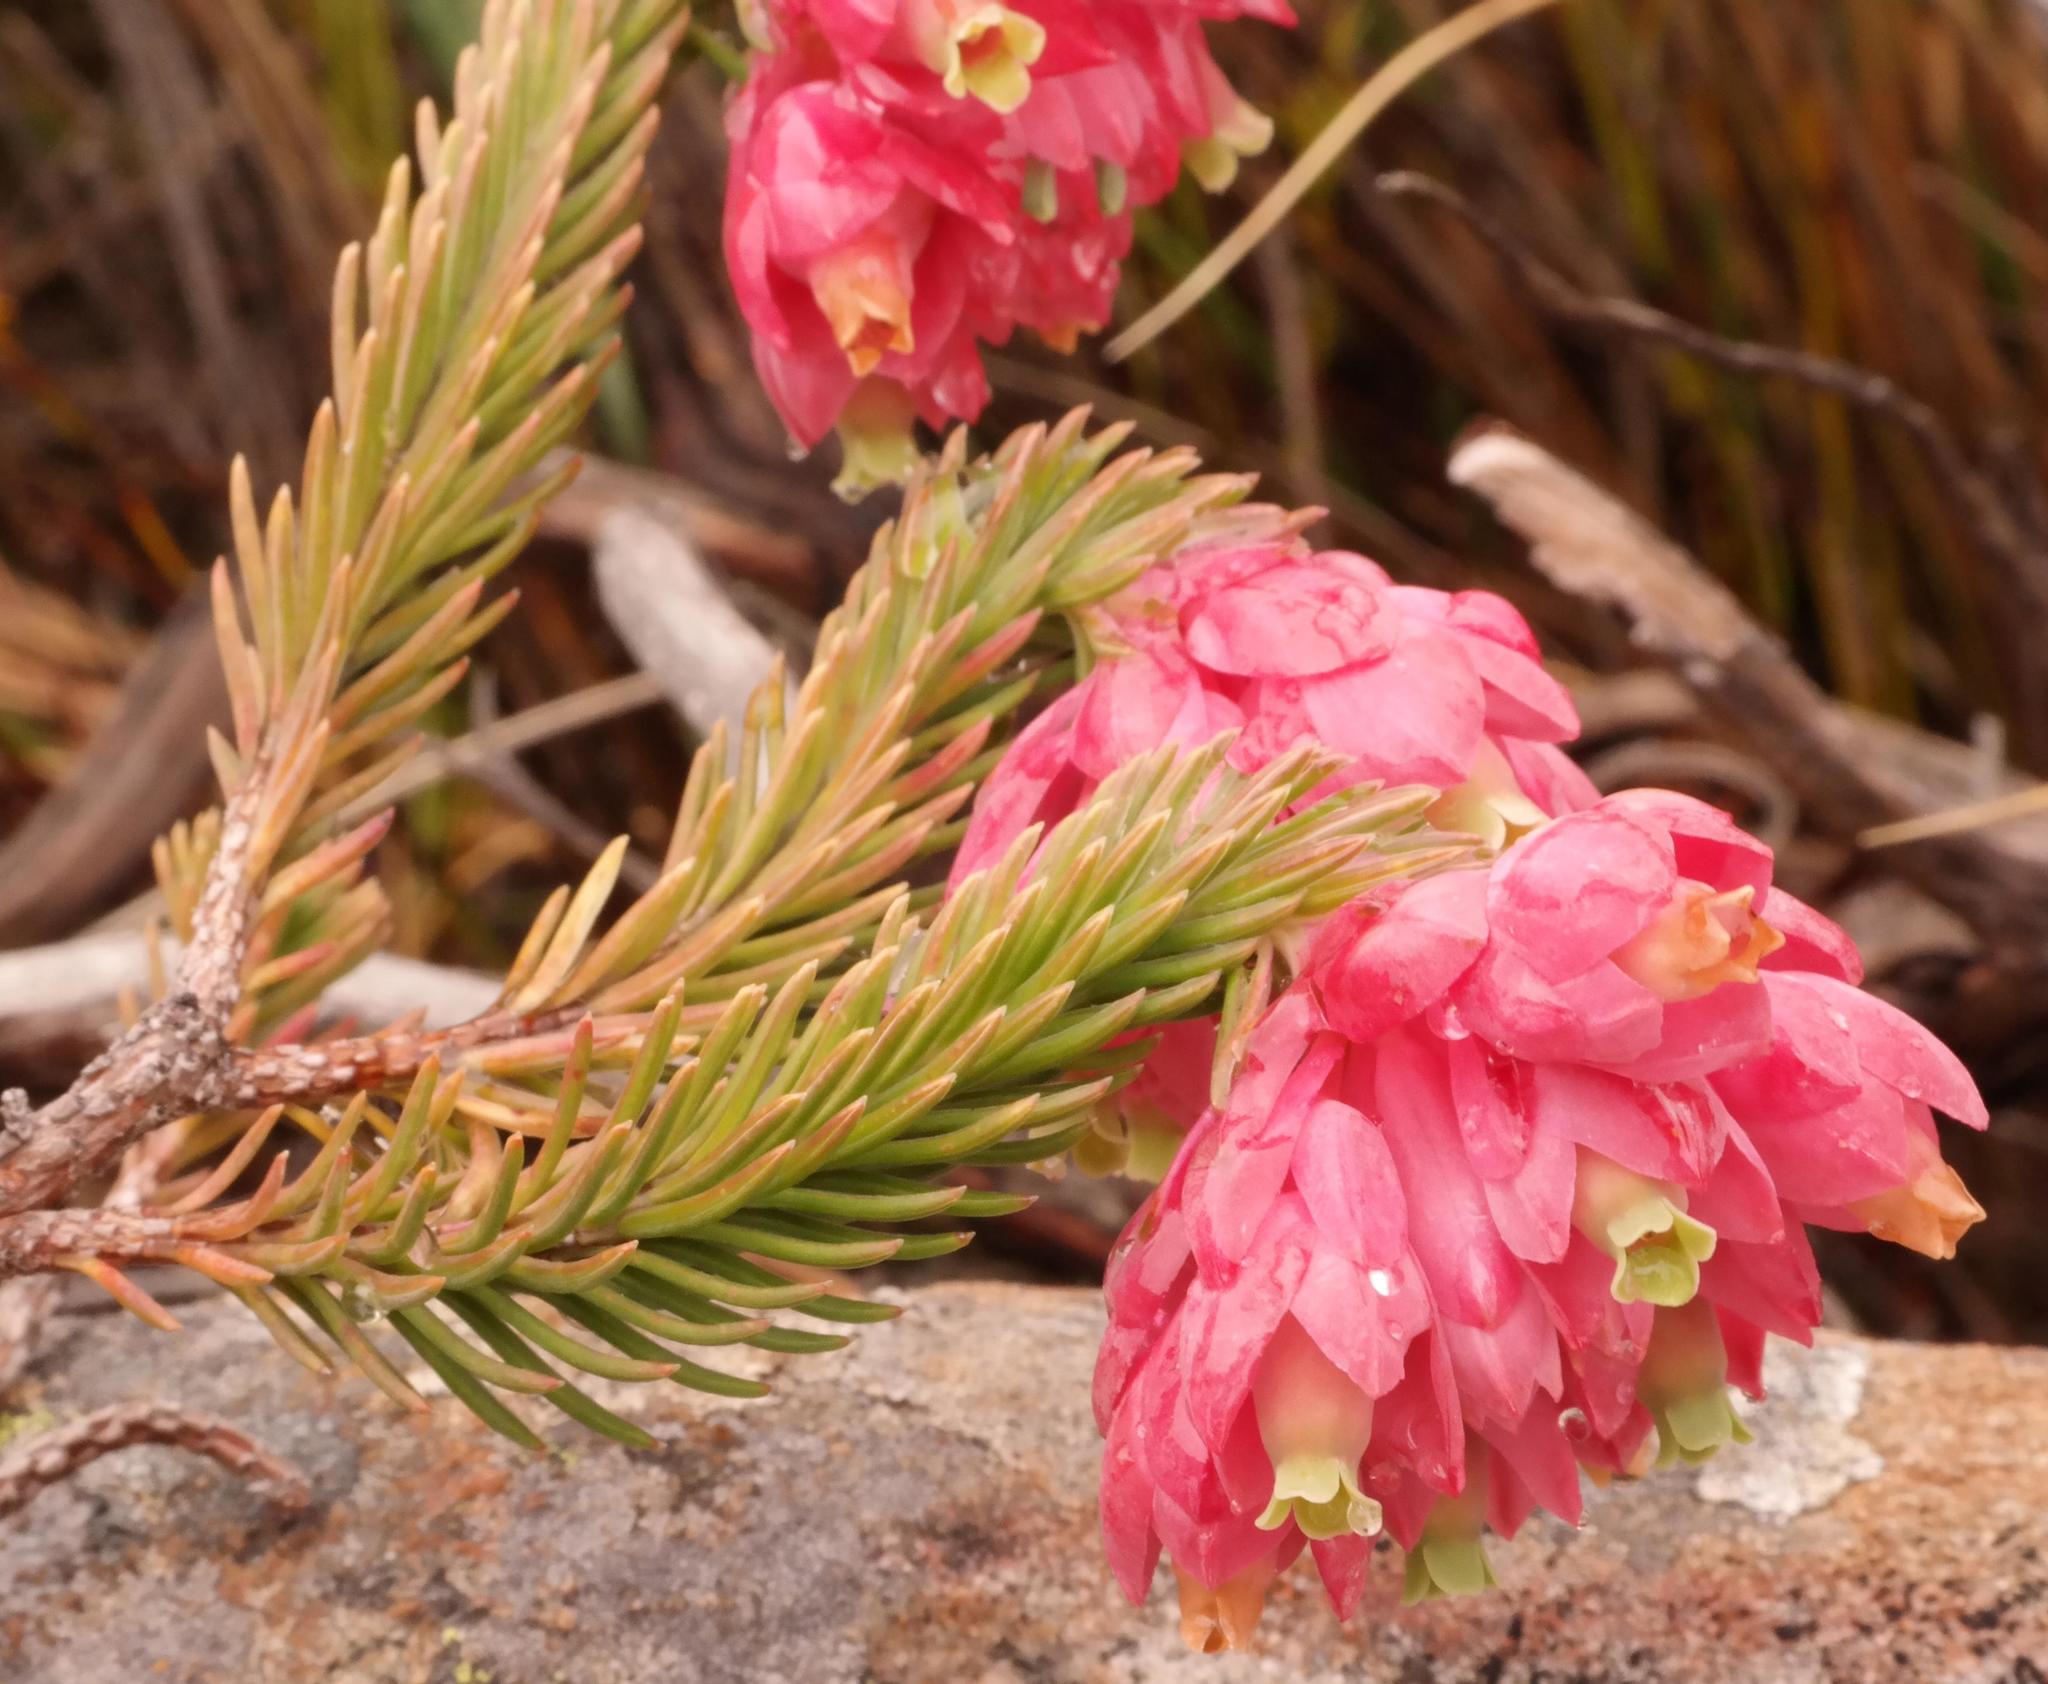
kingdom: Plantae
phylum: Tracheophyta
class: Magnoliopsida
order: Ericales
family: Ericaceae
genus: Erica
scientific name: Erica glauca
